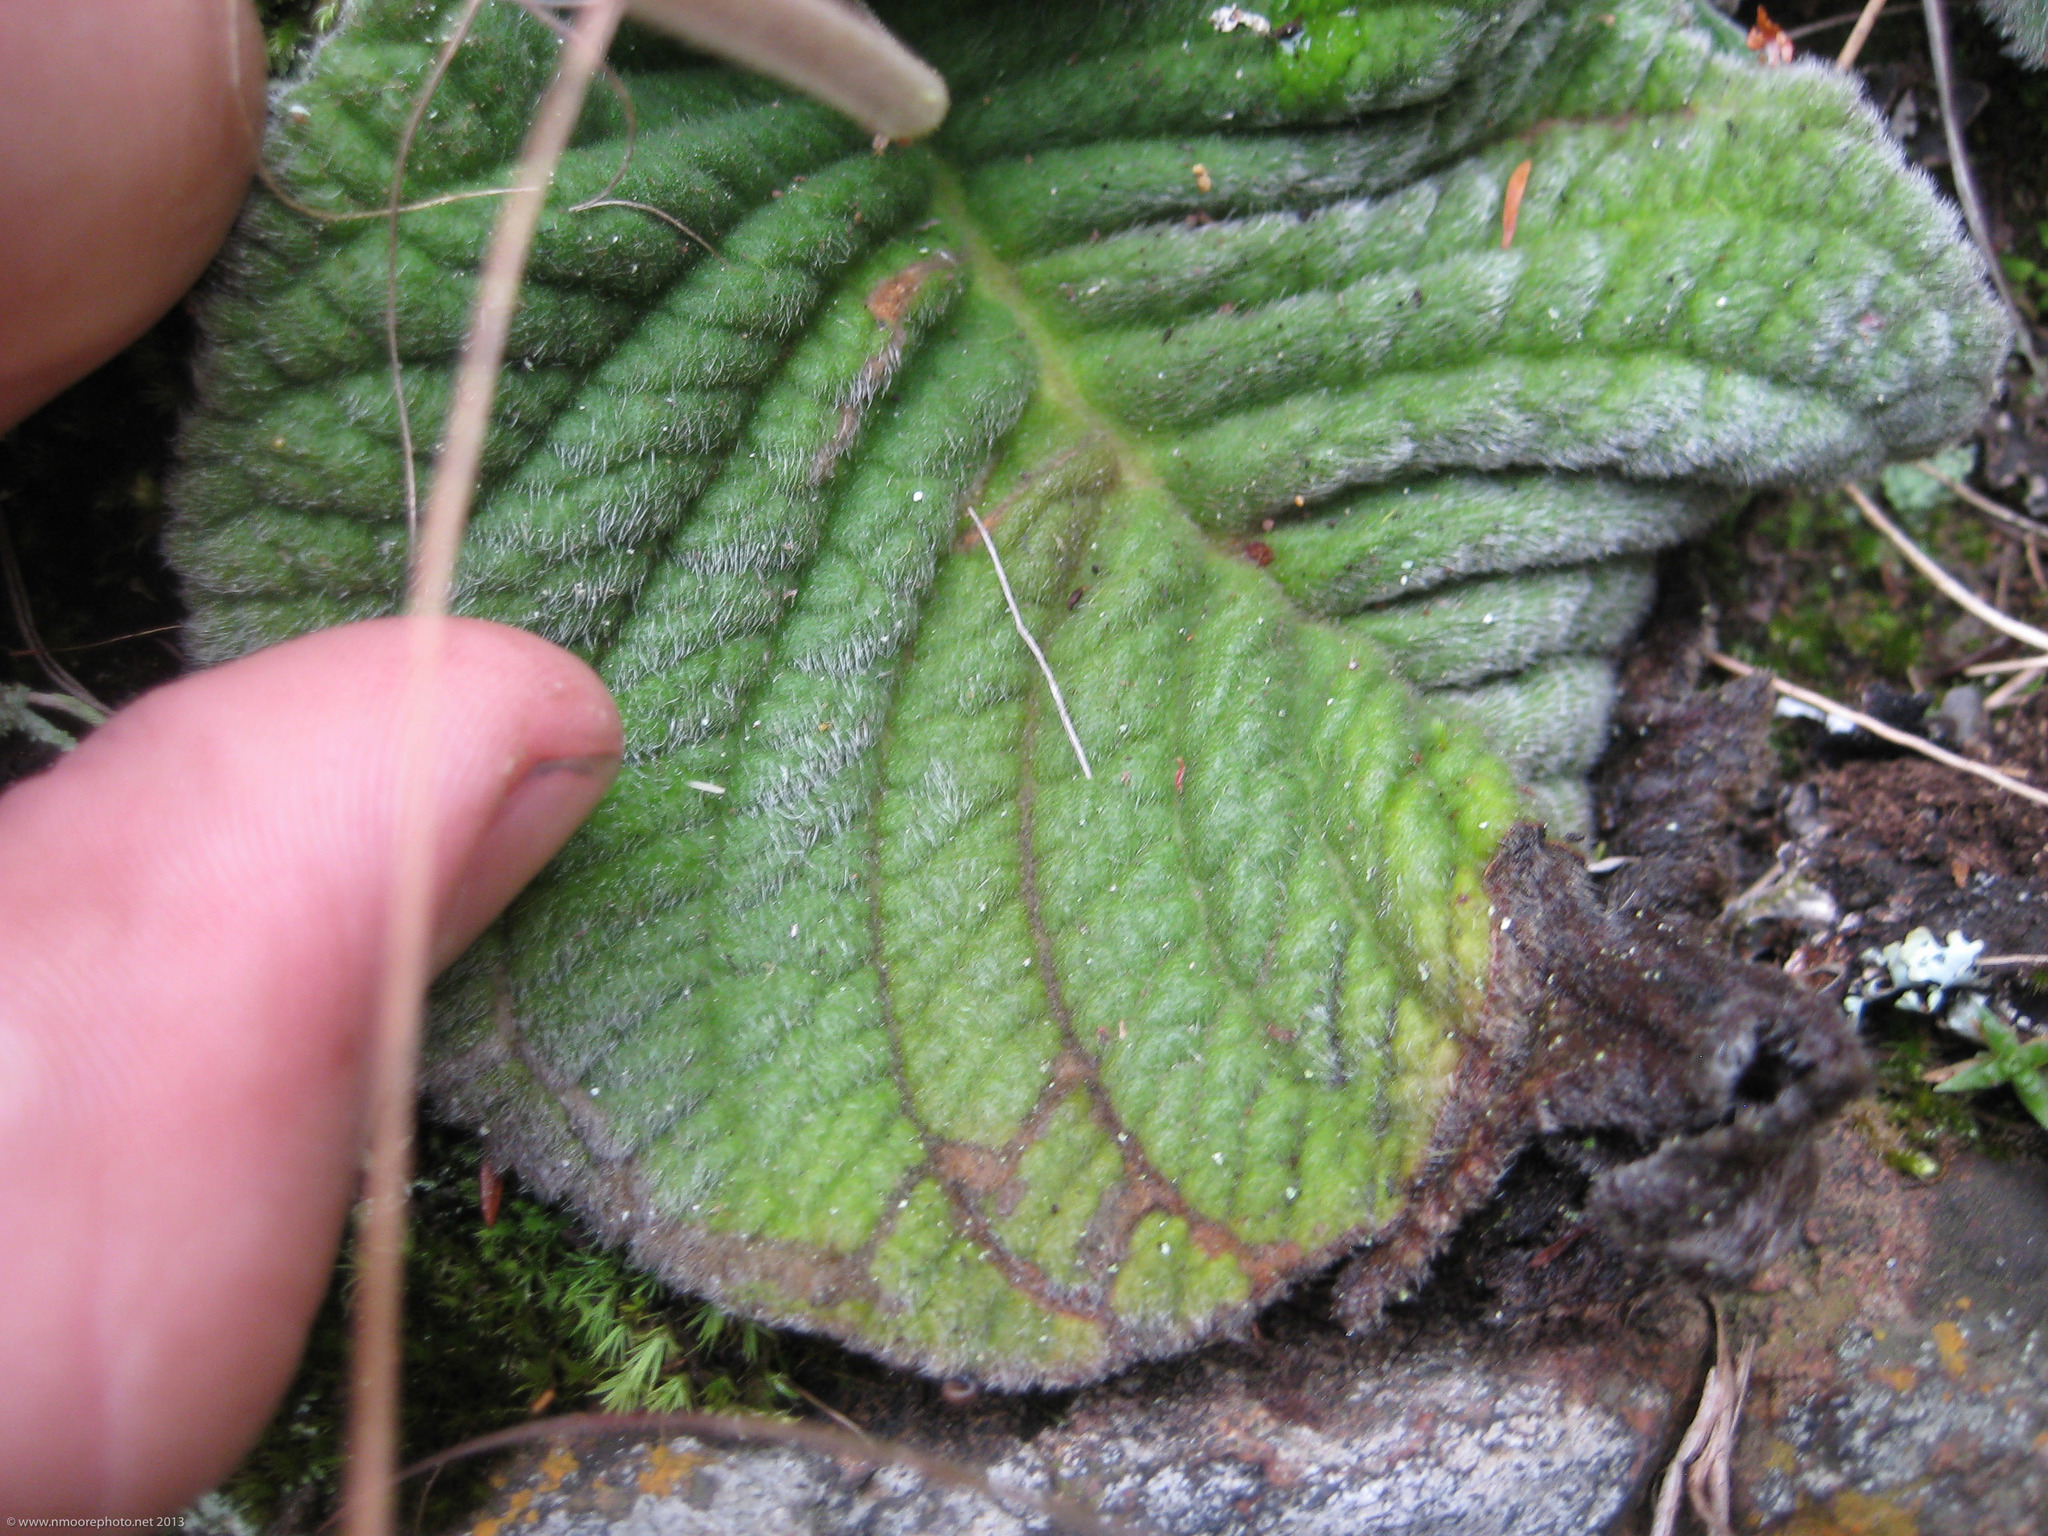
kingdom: Plantae
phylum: Tracheophyta
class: Magnoliopsida
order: Lamiales
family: Gesneriaceae
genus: Streptocarpus
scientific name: Streptocarpus hilburtianus
